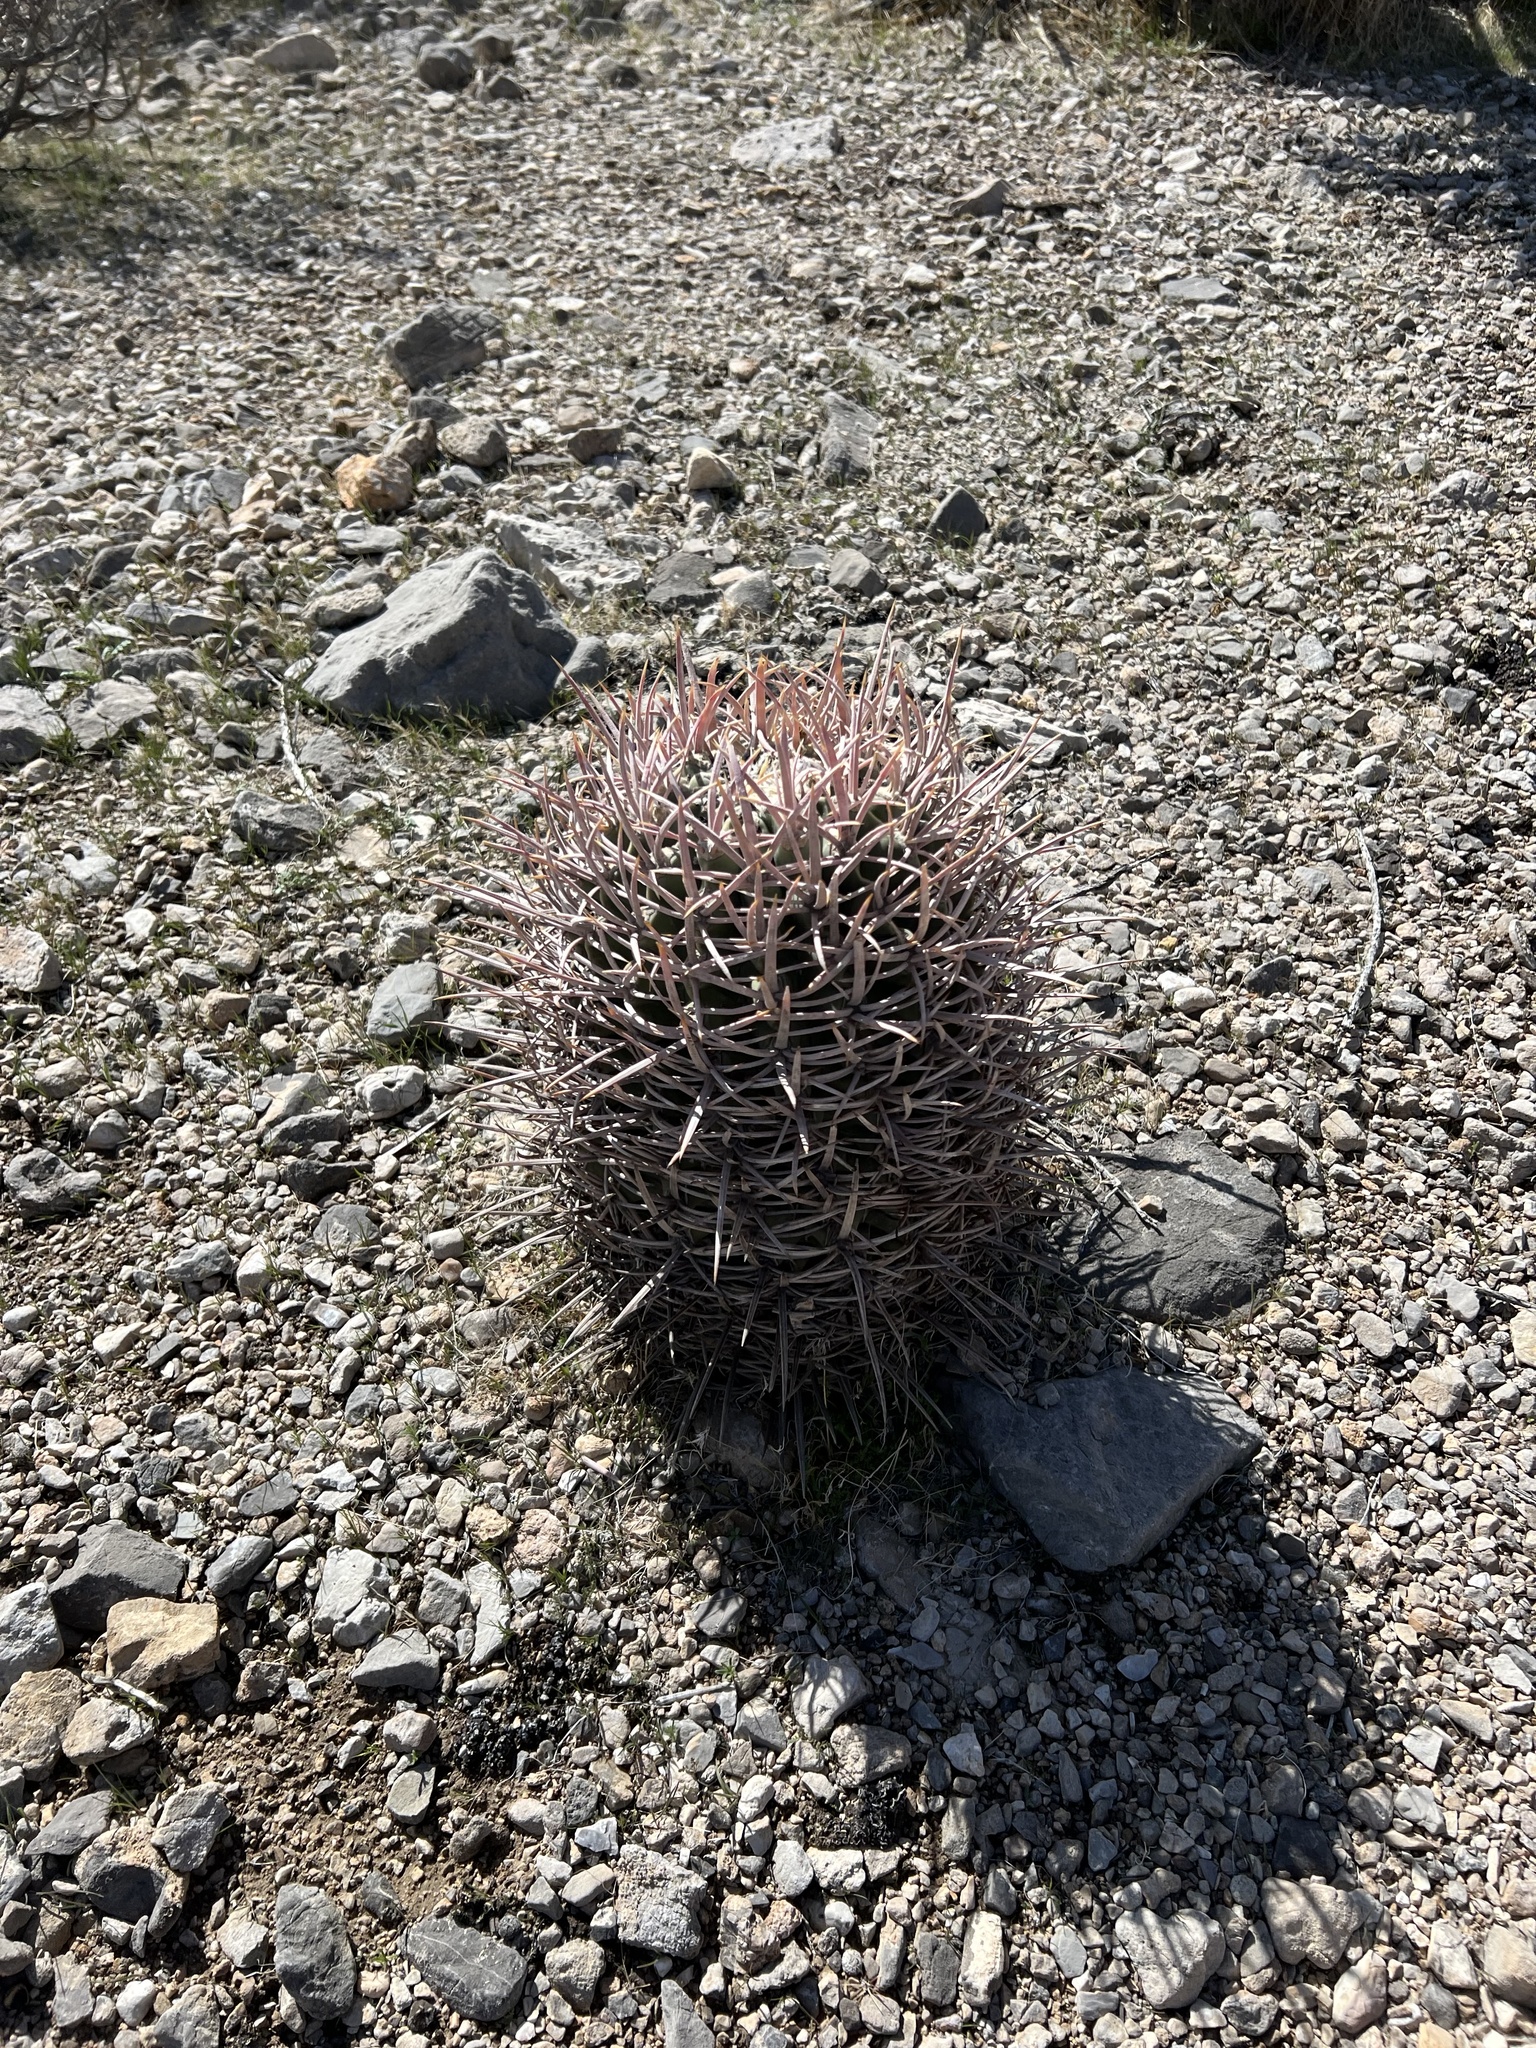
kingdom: Plantae
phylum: Tracheophyta
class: Magnoliopsida
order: Caryophyllales
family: Cactaceae
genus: Echinocactus
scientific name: Echinocactus polycephalus
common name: Cottontop cactus
